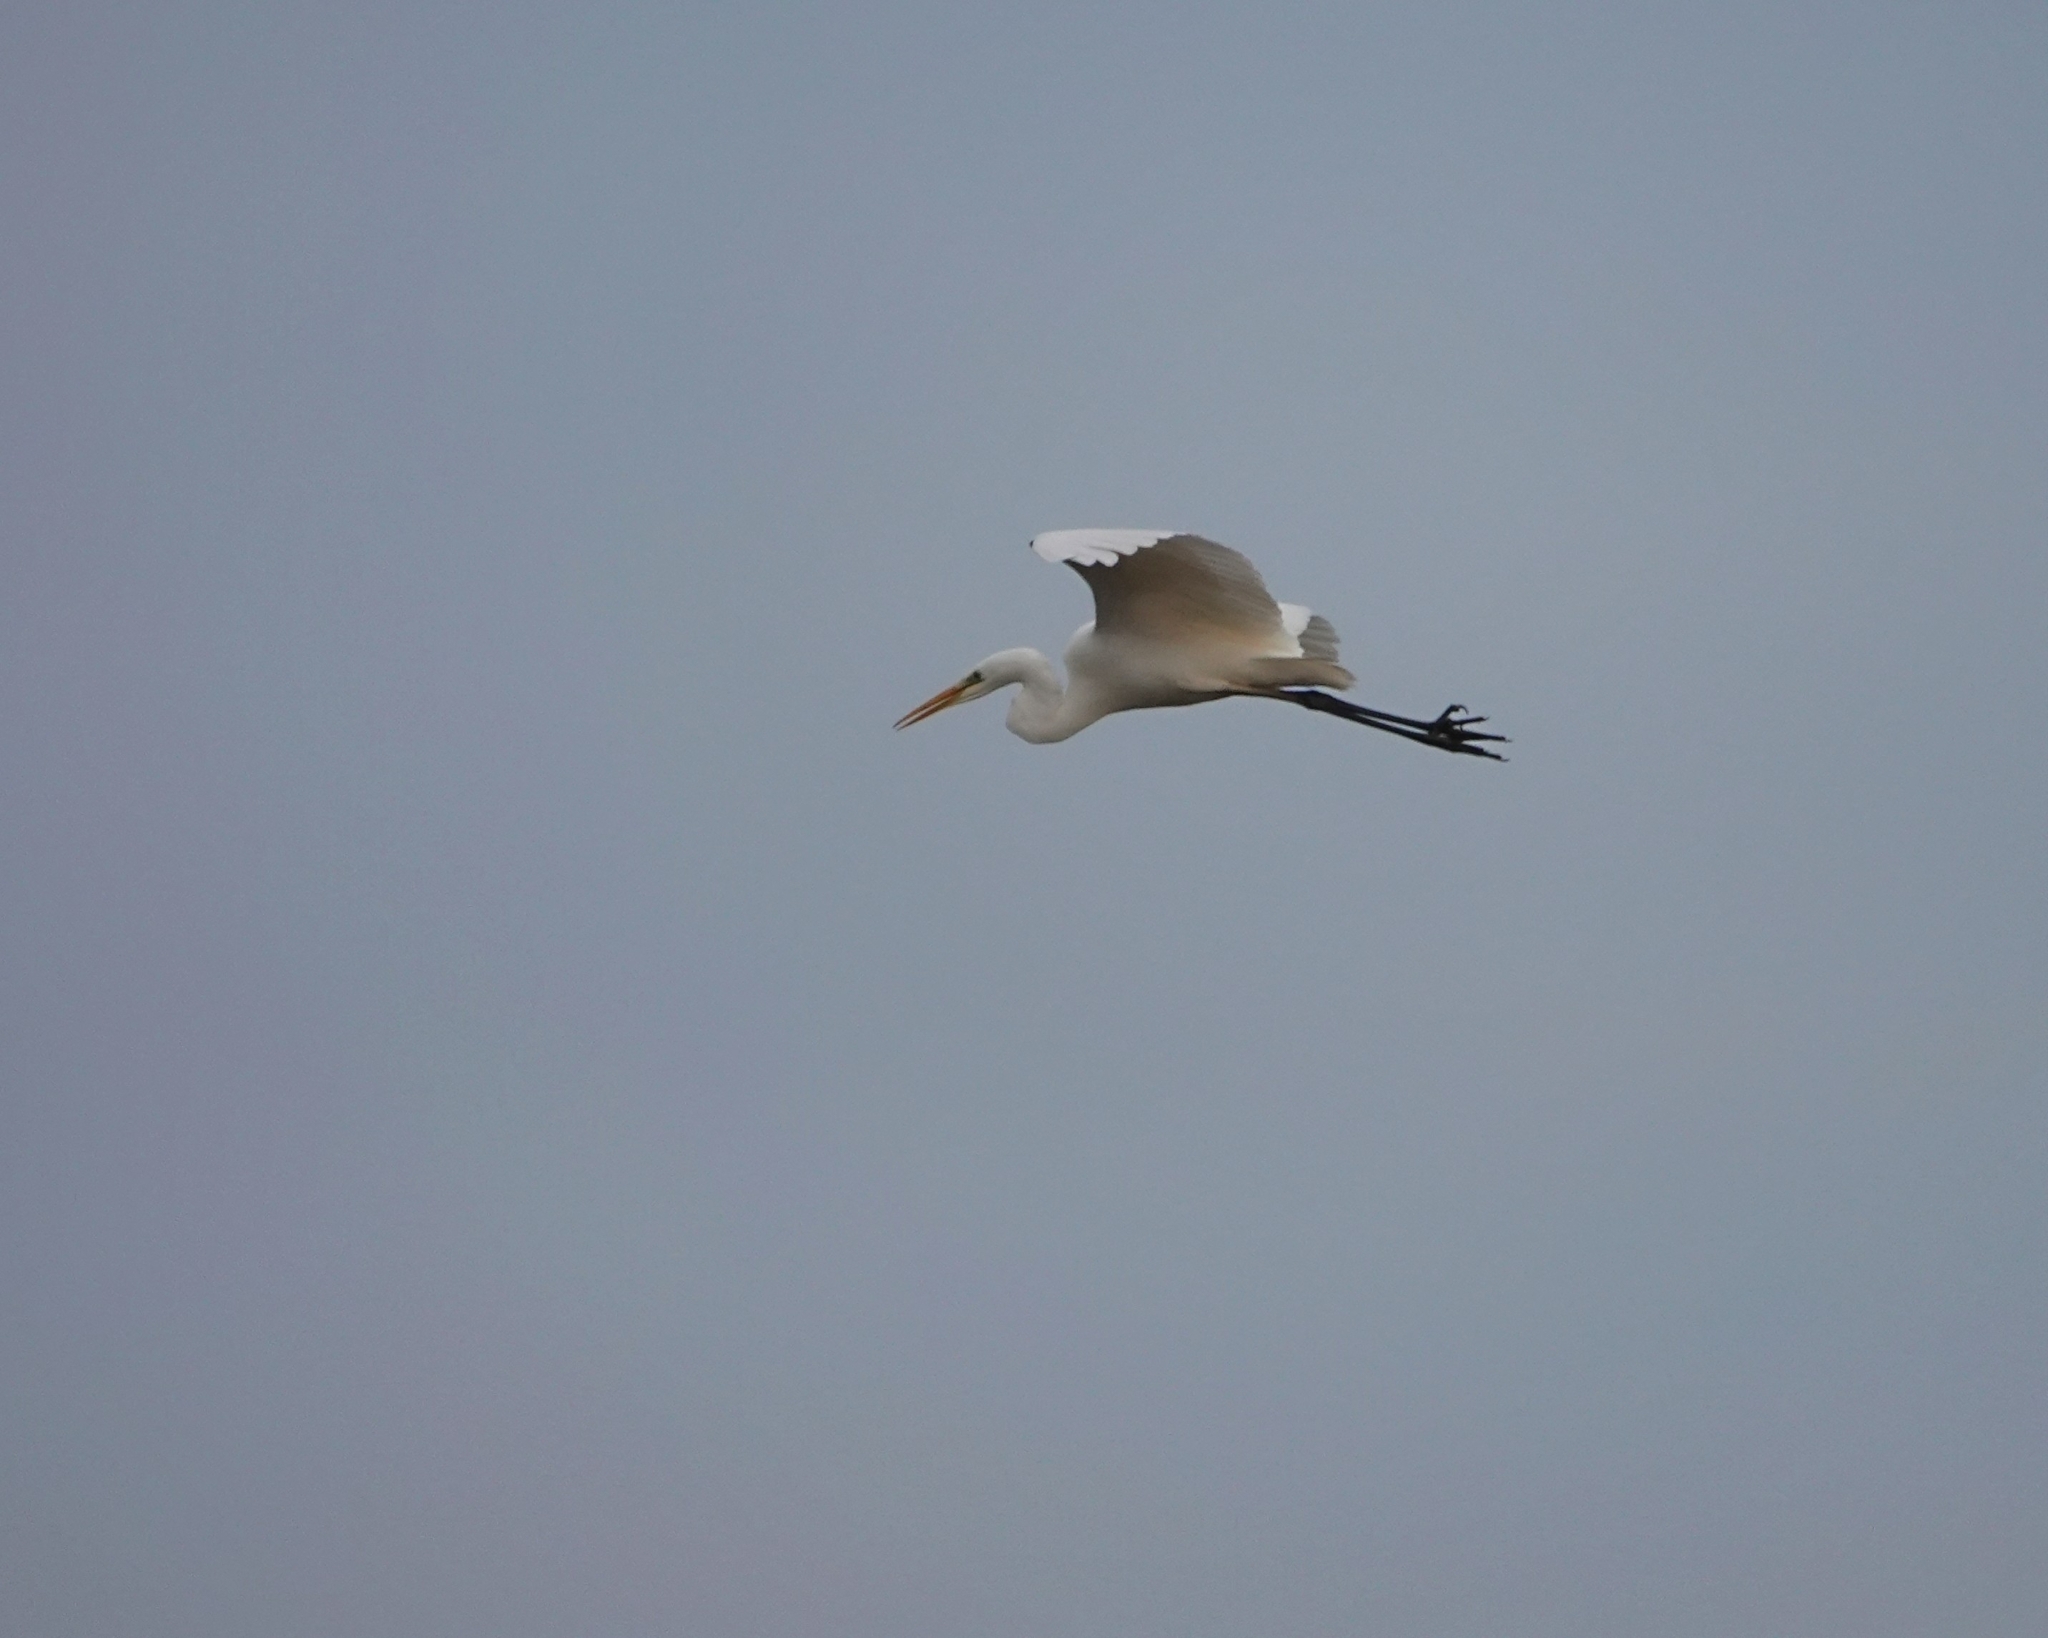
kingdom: Animalia
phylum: Chordata
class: Aves
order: Pelecaniformes
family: Ardeidae
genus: Ardea
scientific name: Ardea alba
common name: Great egret
